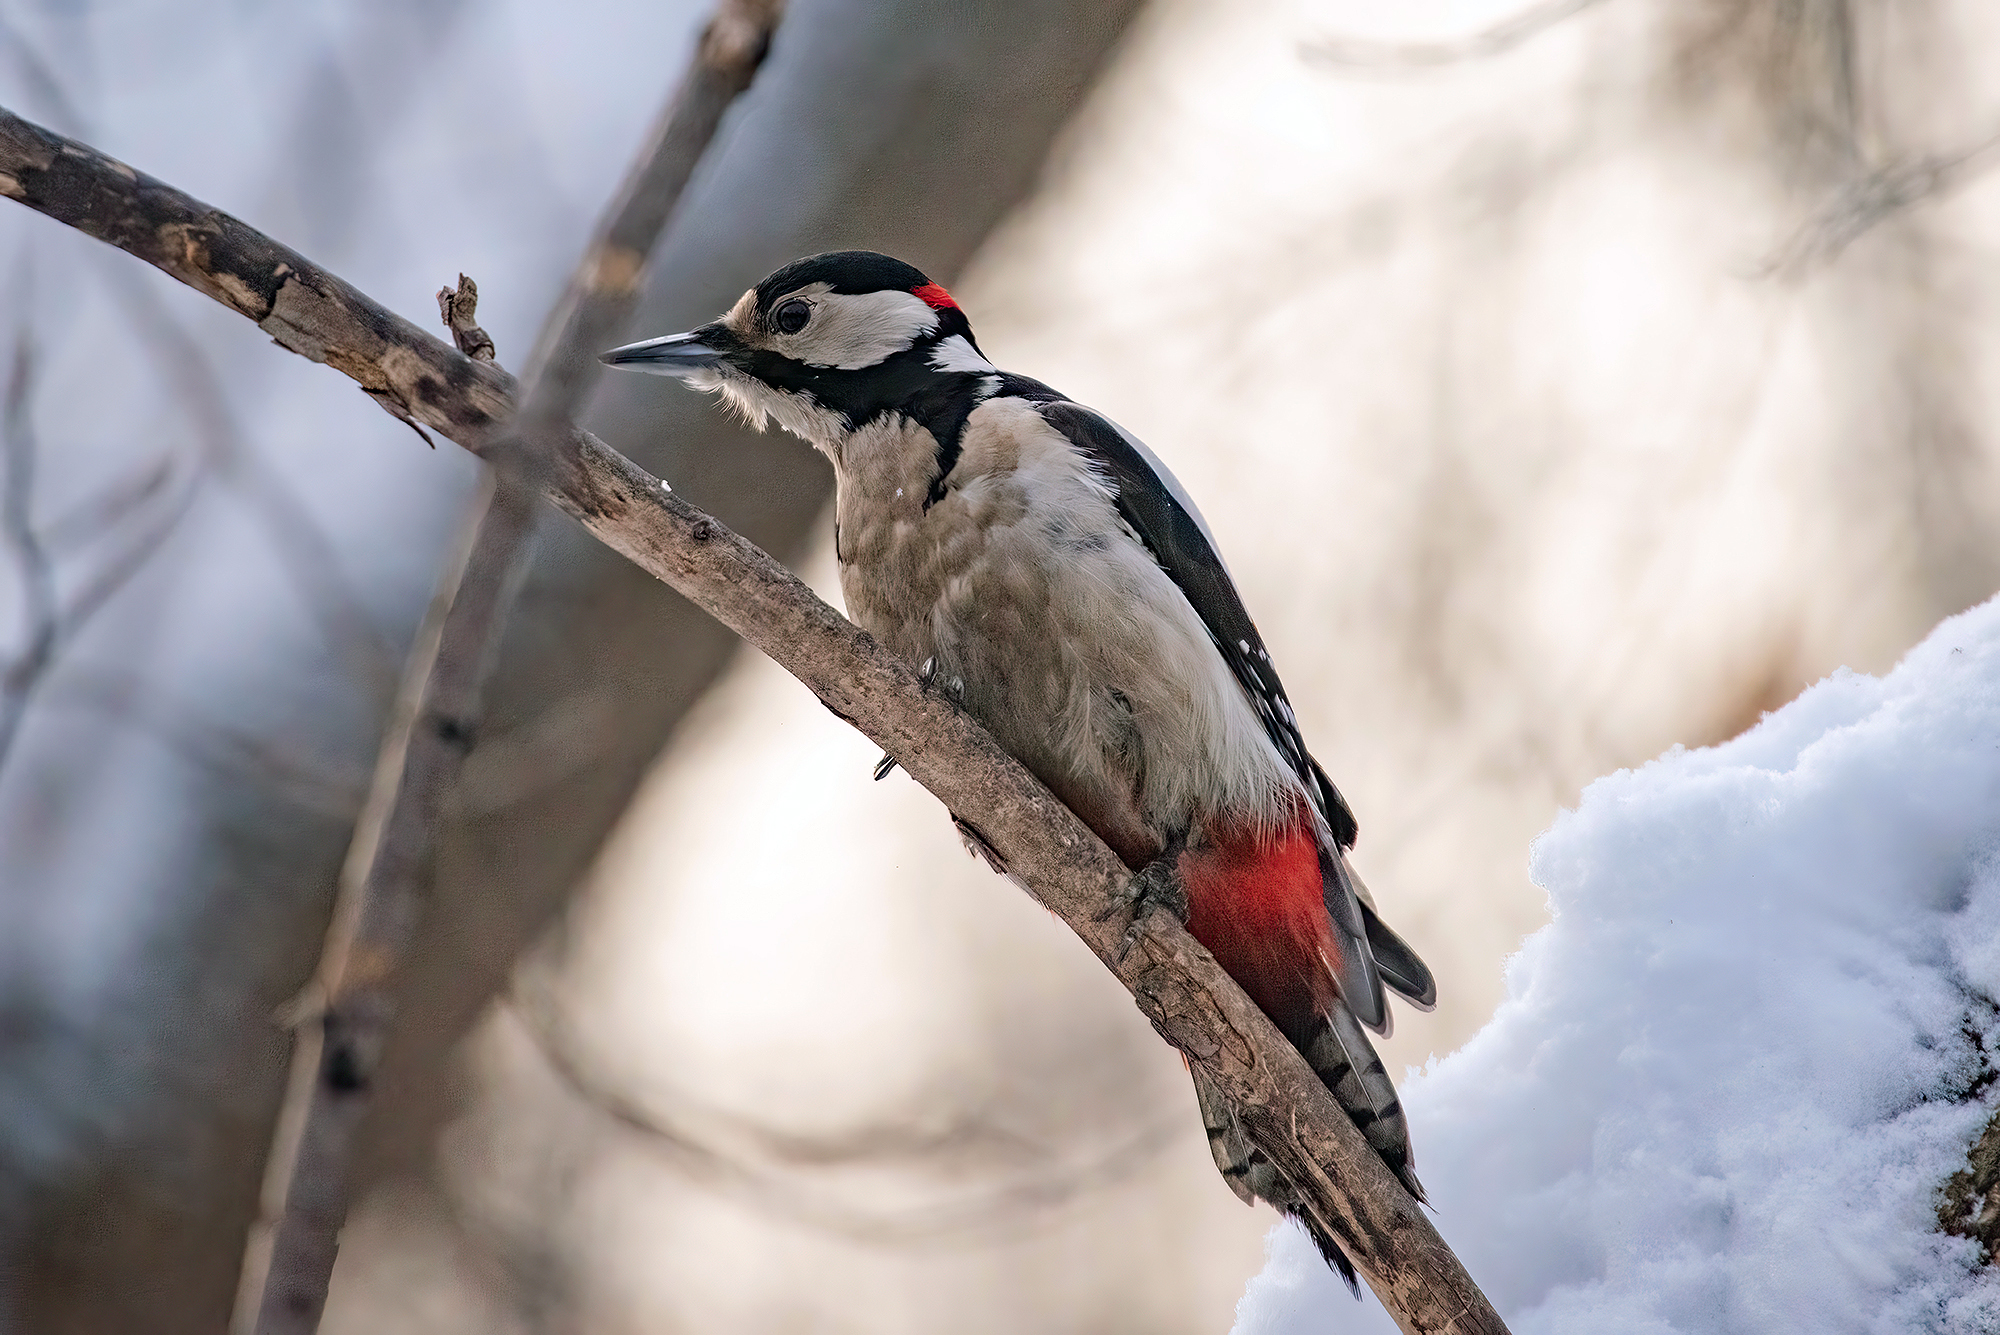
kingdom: Animalia
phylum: Chordata
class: Aves
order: Piciformes
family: Picidae
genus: Dendrocopos
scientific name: Dendrocopos major
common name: Great spotted woodpecker
